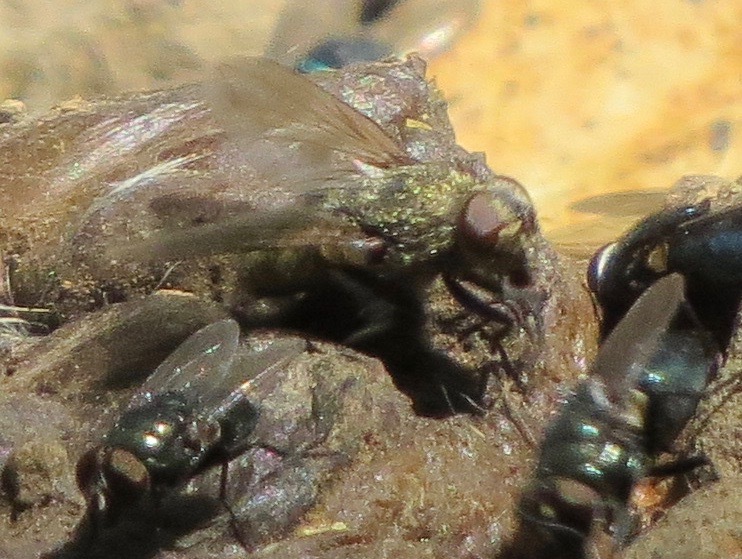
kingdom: Animalia
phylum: Arthropoda
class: Insecta
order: Diptera
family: Polleniidae
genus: Pollenia
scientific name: Pollenia
